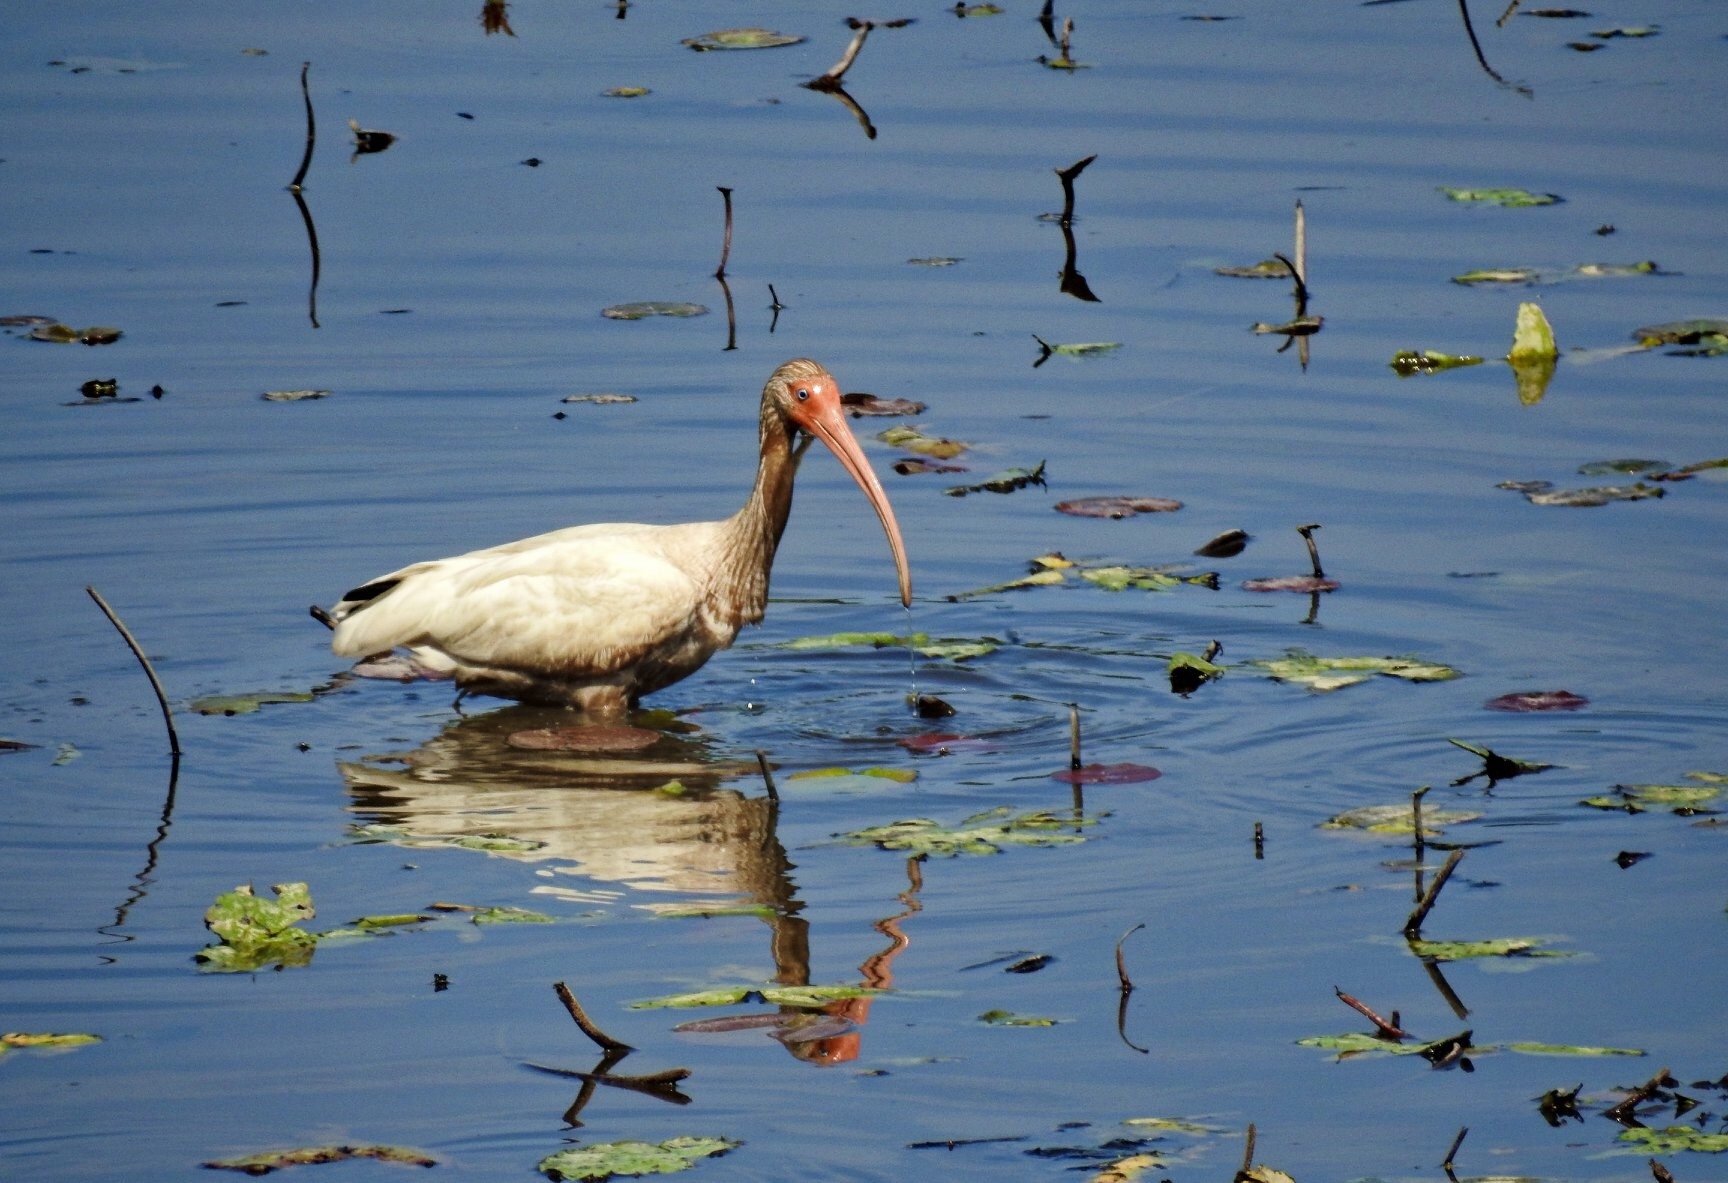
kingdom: Animalia
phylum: Chordata
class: Aves
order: Pelecaniformes
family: Threskiornithidae
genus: Eudocimus
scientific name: Eudocimus albus
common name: White ibis
